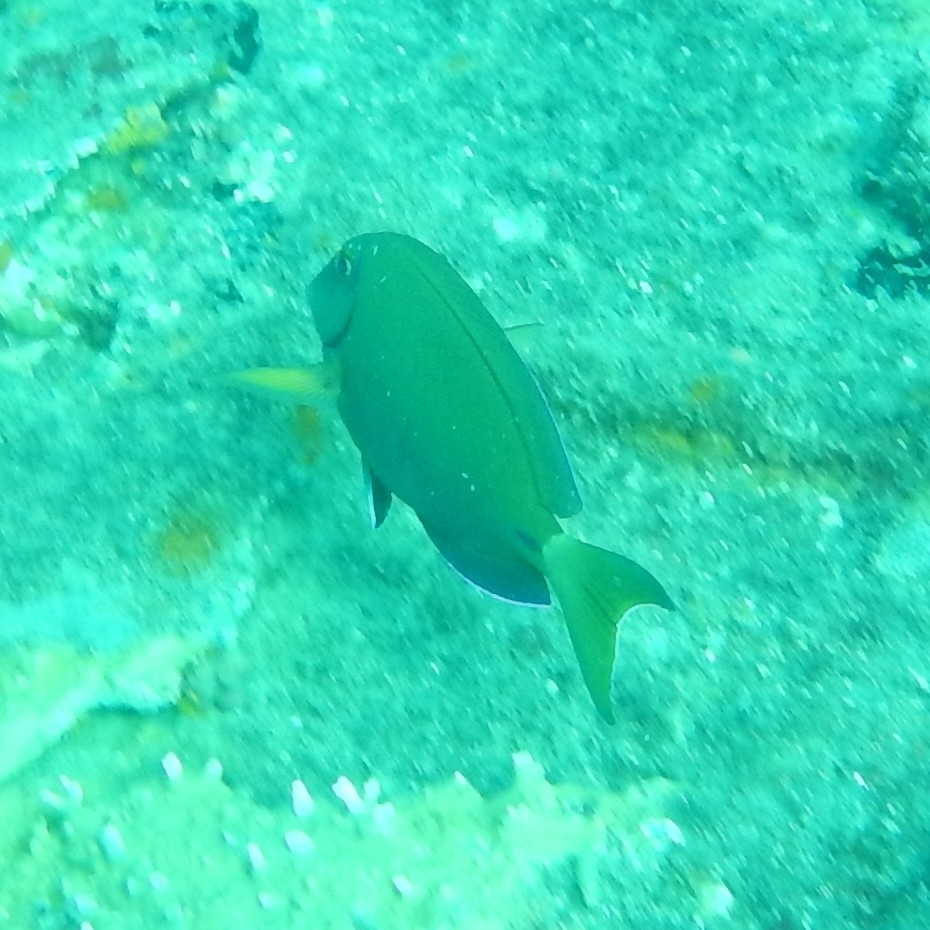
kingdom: Animalia
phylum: Chordata
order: Perciformes
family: Acanthuridae
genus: Acanthurus
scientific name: Acanthurus bahianus
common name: Ocean surgeon
